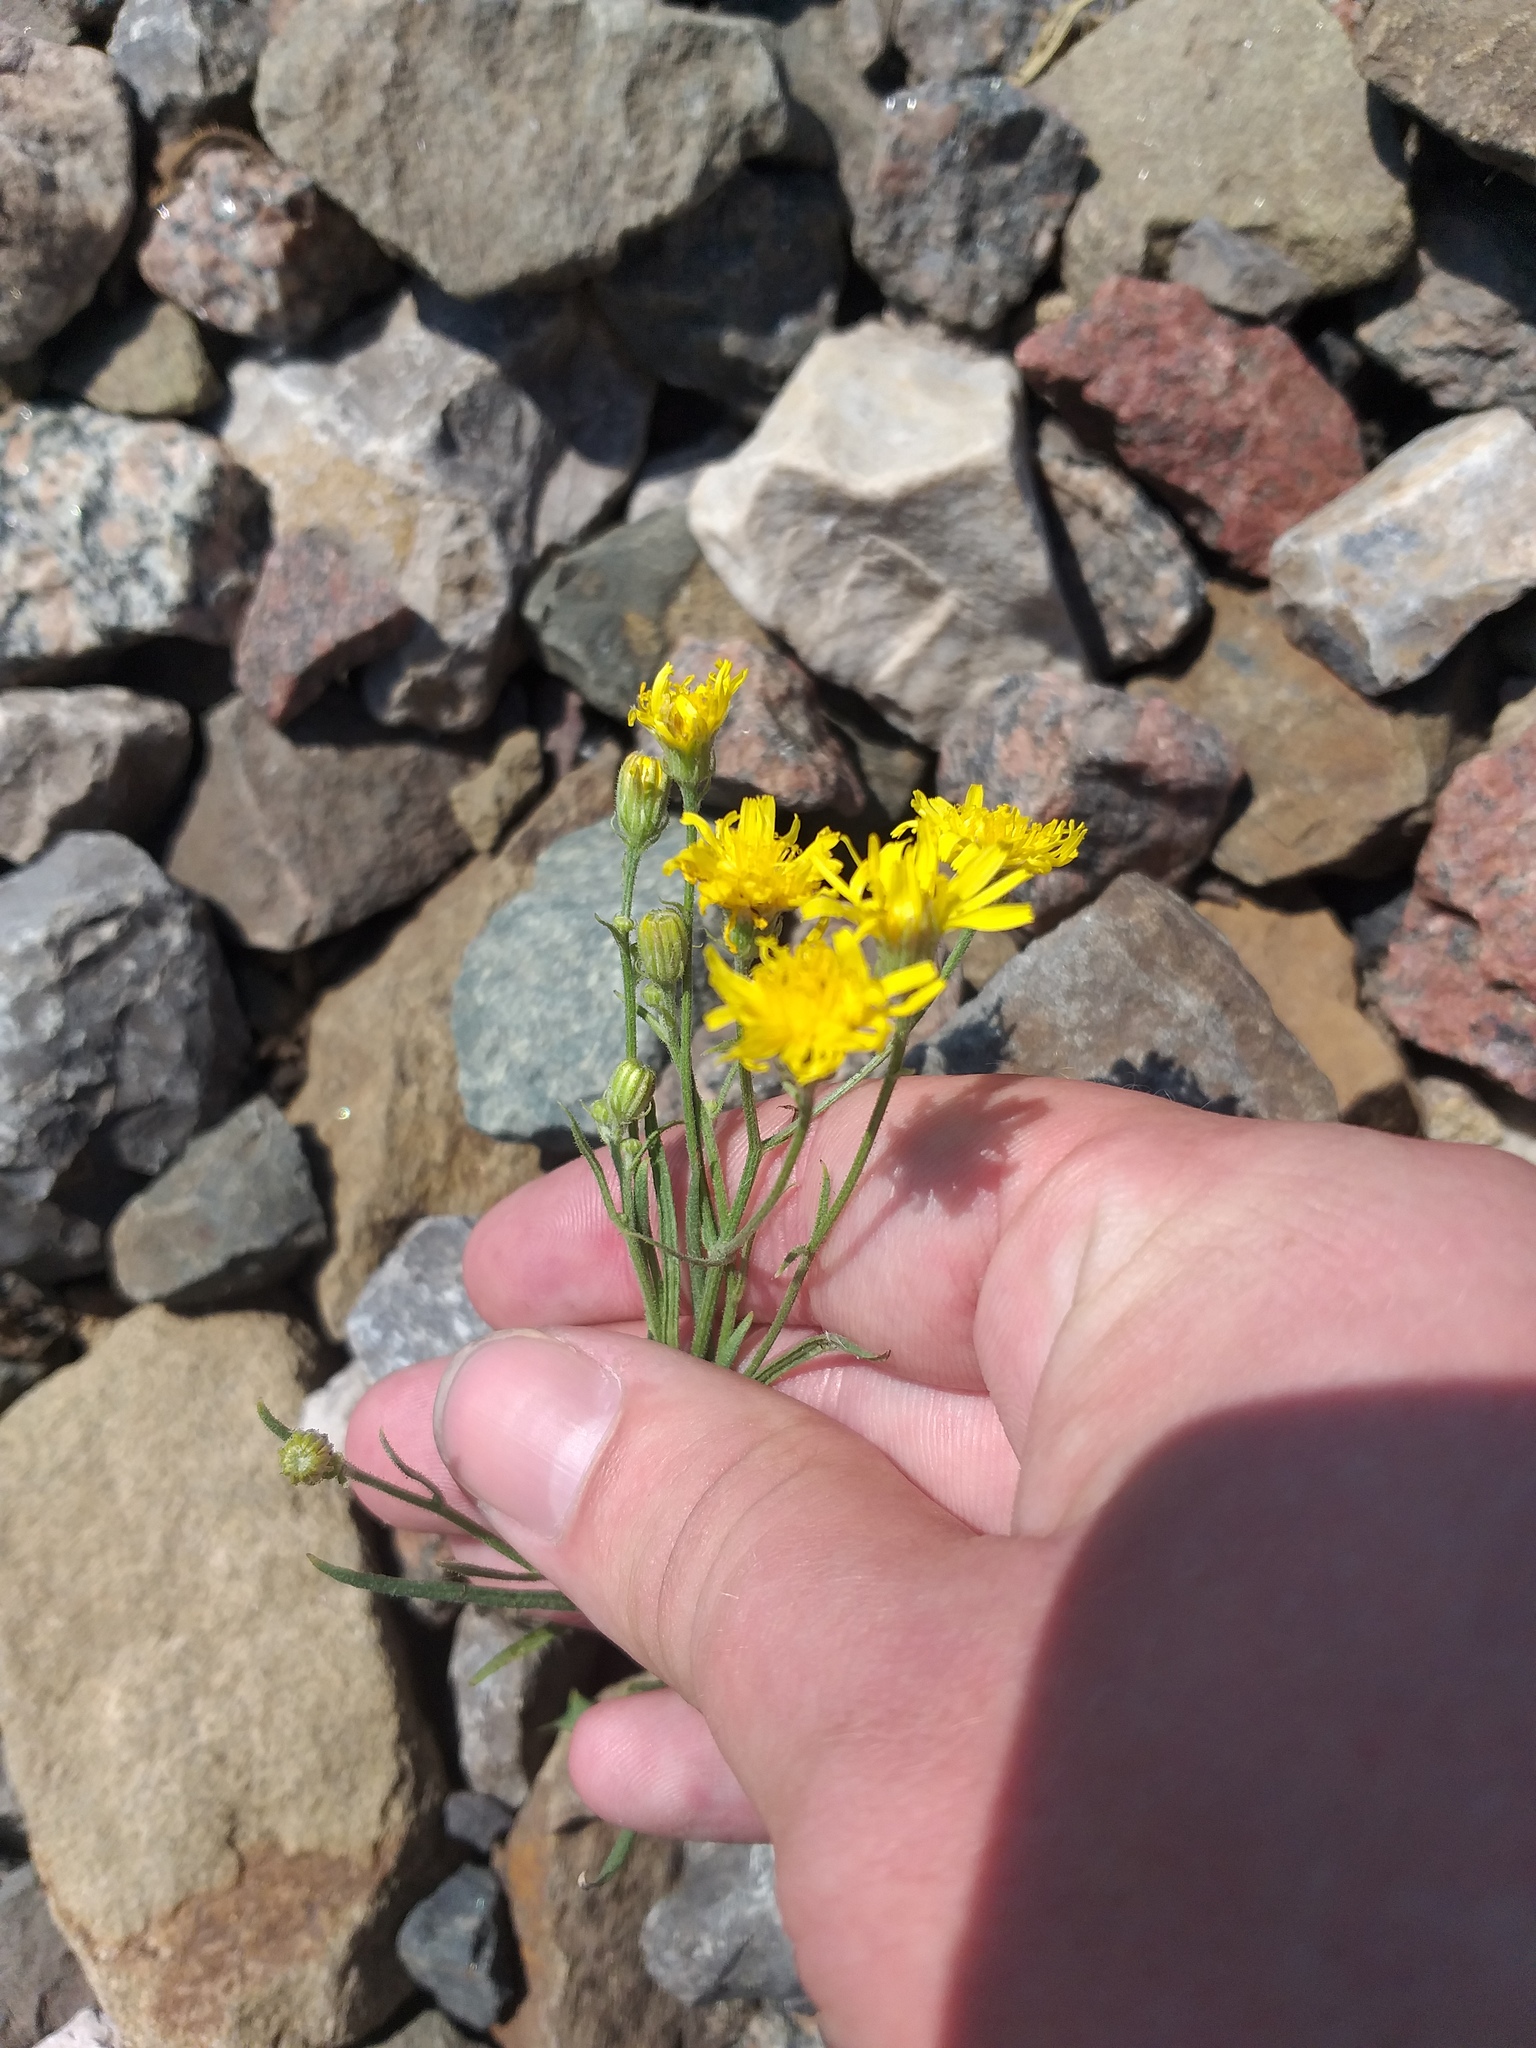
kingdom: Plantae
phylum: Tracheophyta
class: Magnoliopsida
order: Asterales
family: Asteraceae
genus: Crepis
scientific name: Crepis tectorum
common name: Narrow-leaved hawk's-beard
